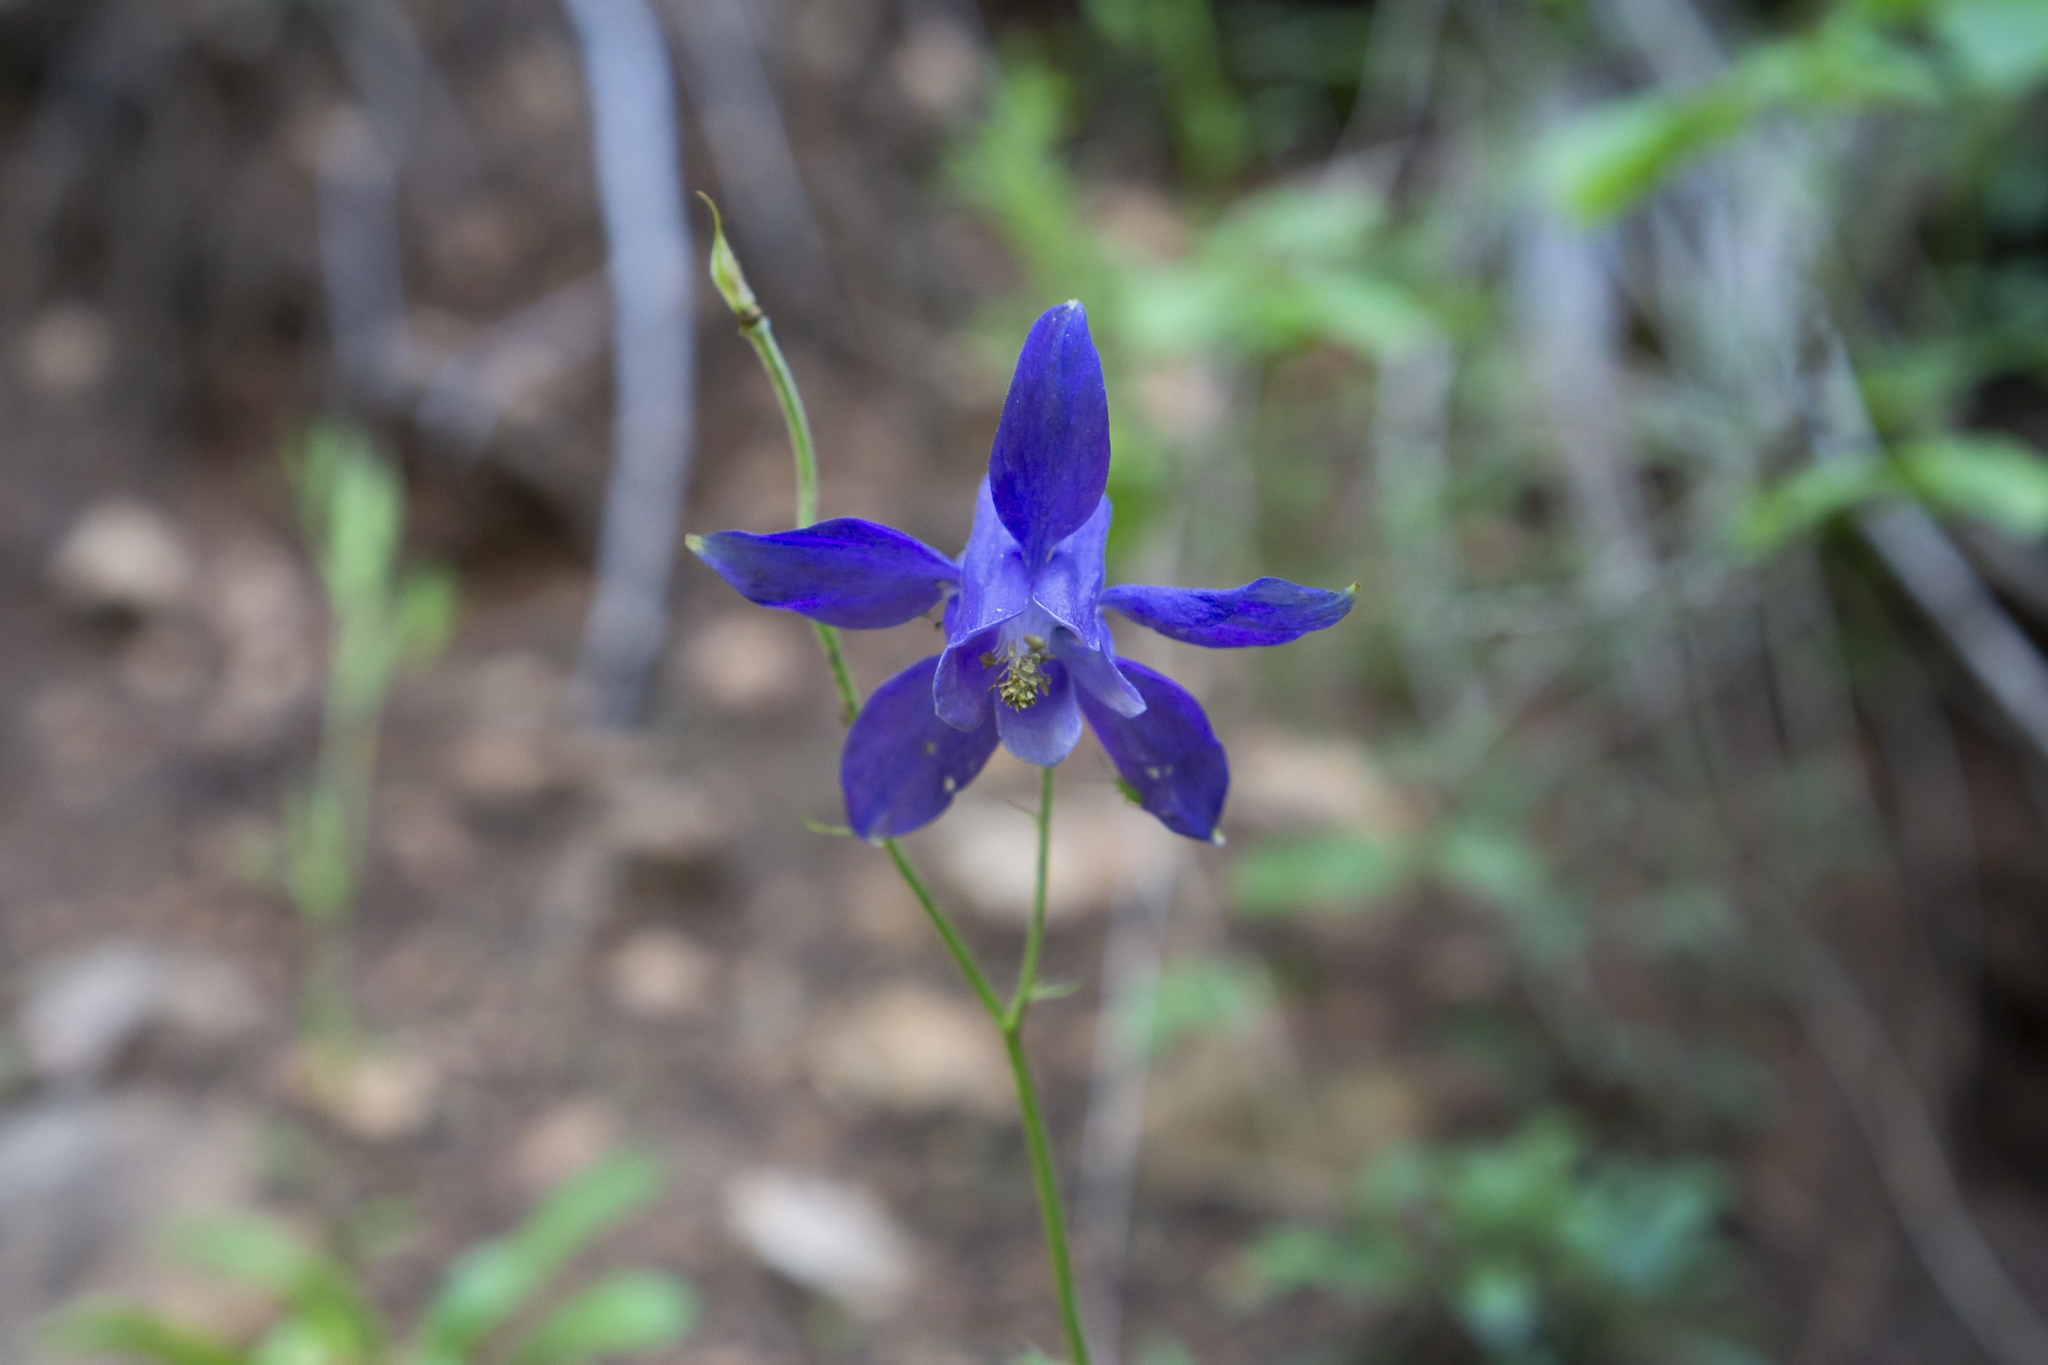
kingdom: Plantae
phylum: Tracheophyta
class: Magnoliopsida
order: Ranunculales
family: Ranunculaceae
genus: Aquilegia
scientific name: Aquilegia vulgaris
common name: Columbine
